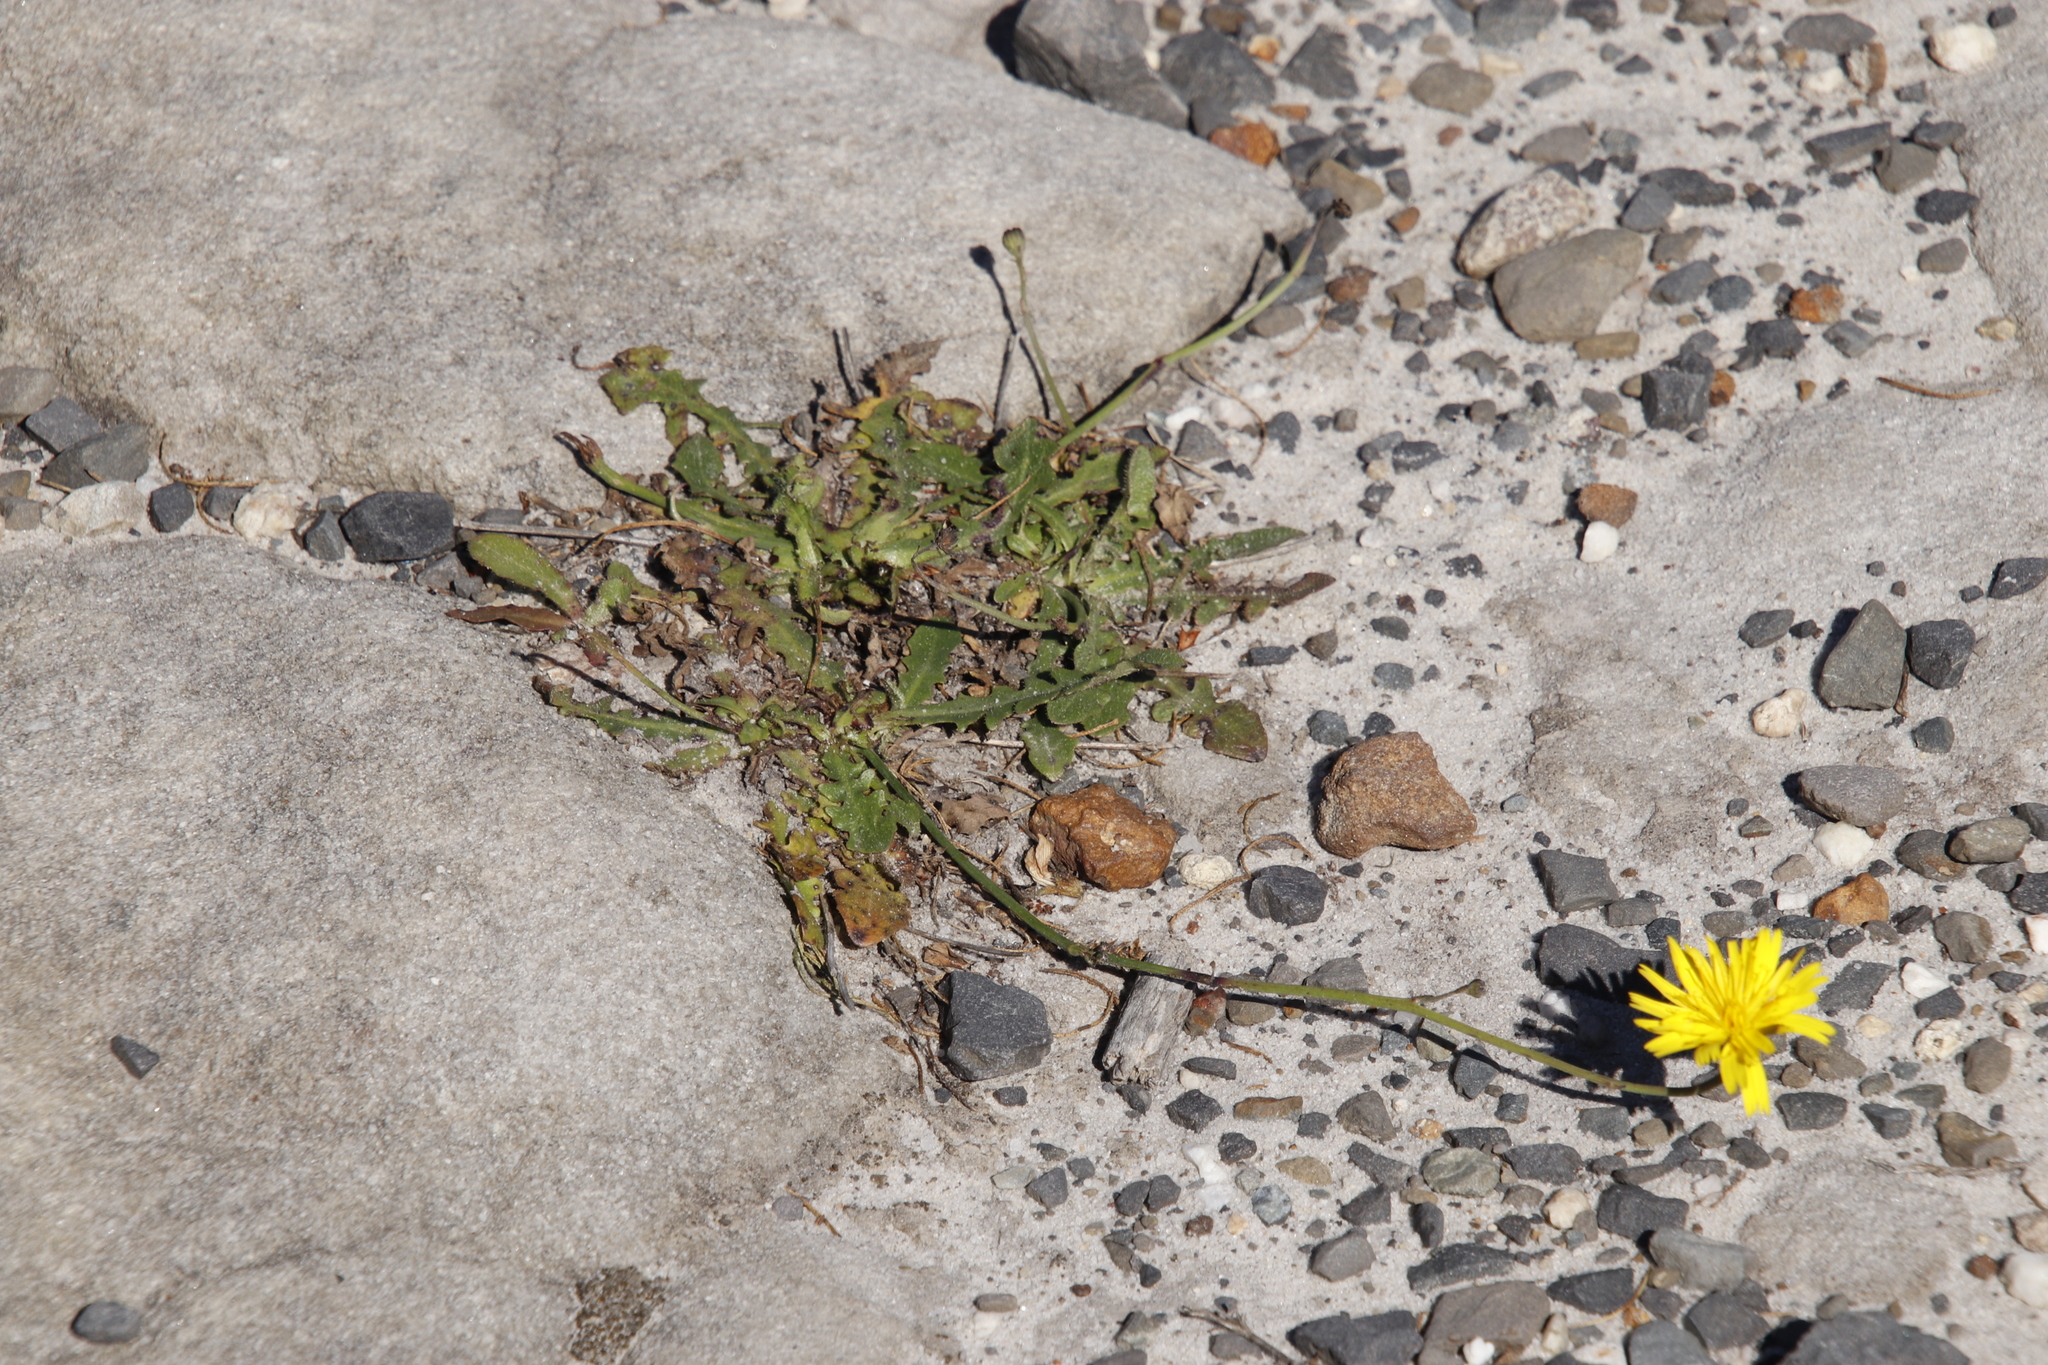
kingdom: Plantae
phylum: Tracheophyta
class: Magnoliopsida
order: Asterales
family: Asteraceae
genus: Hypochaeris
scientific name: Hypochaeris radicata
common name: Flatweed
